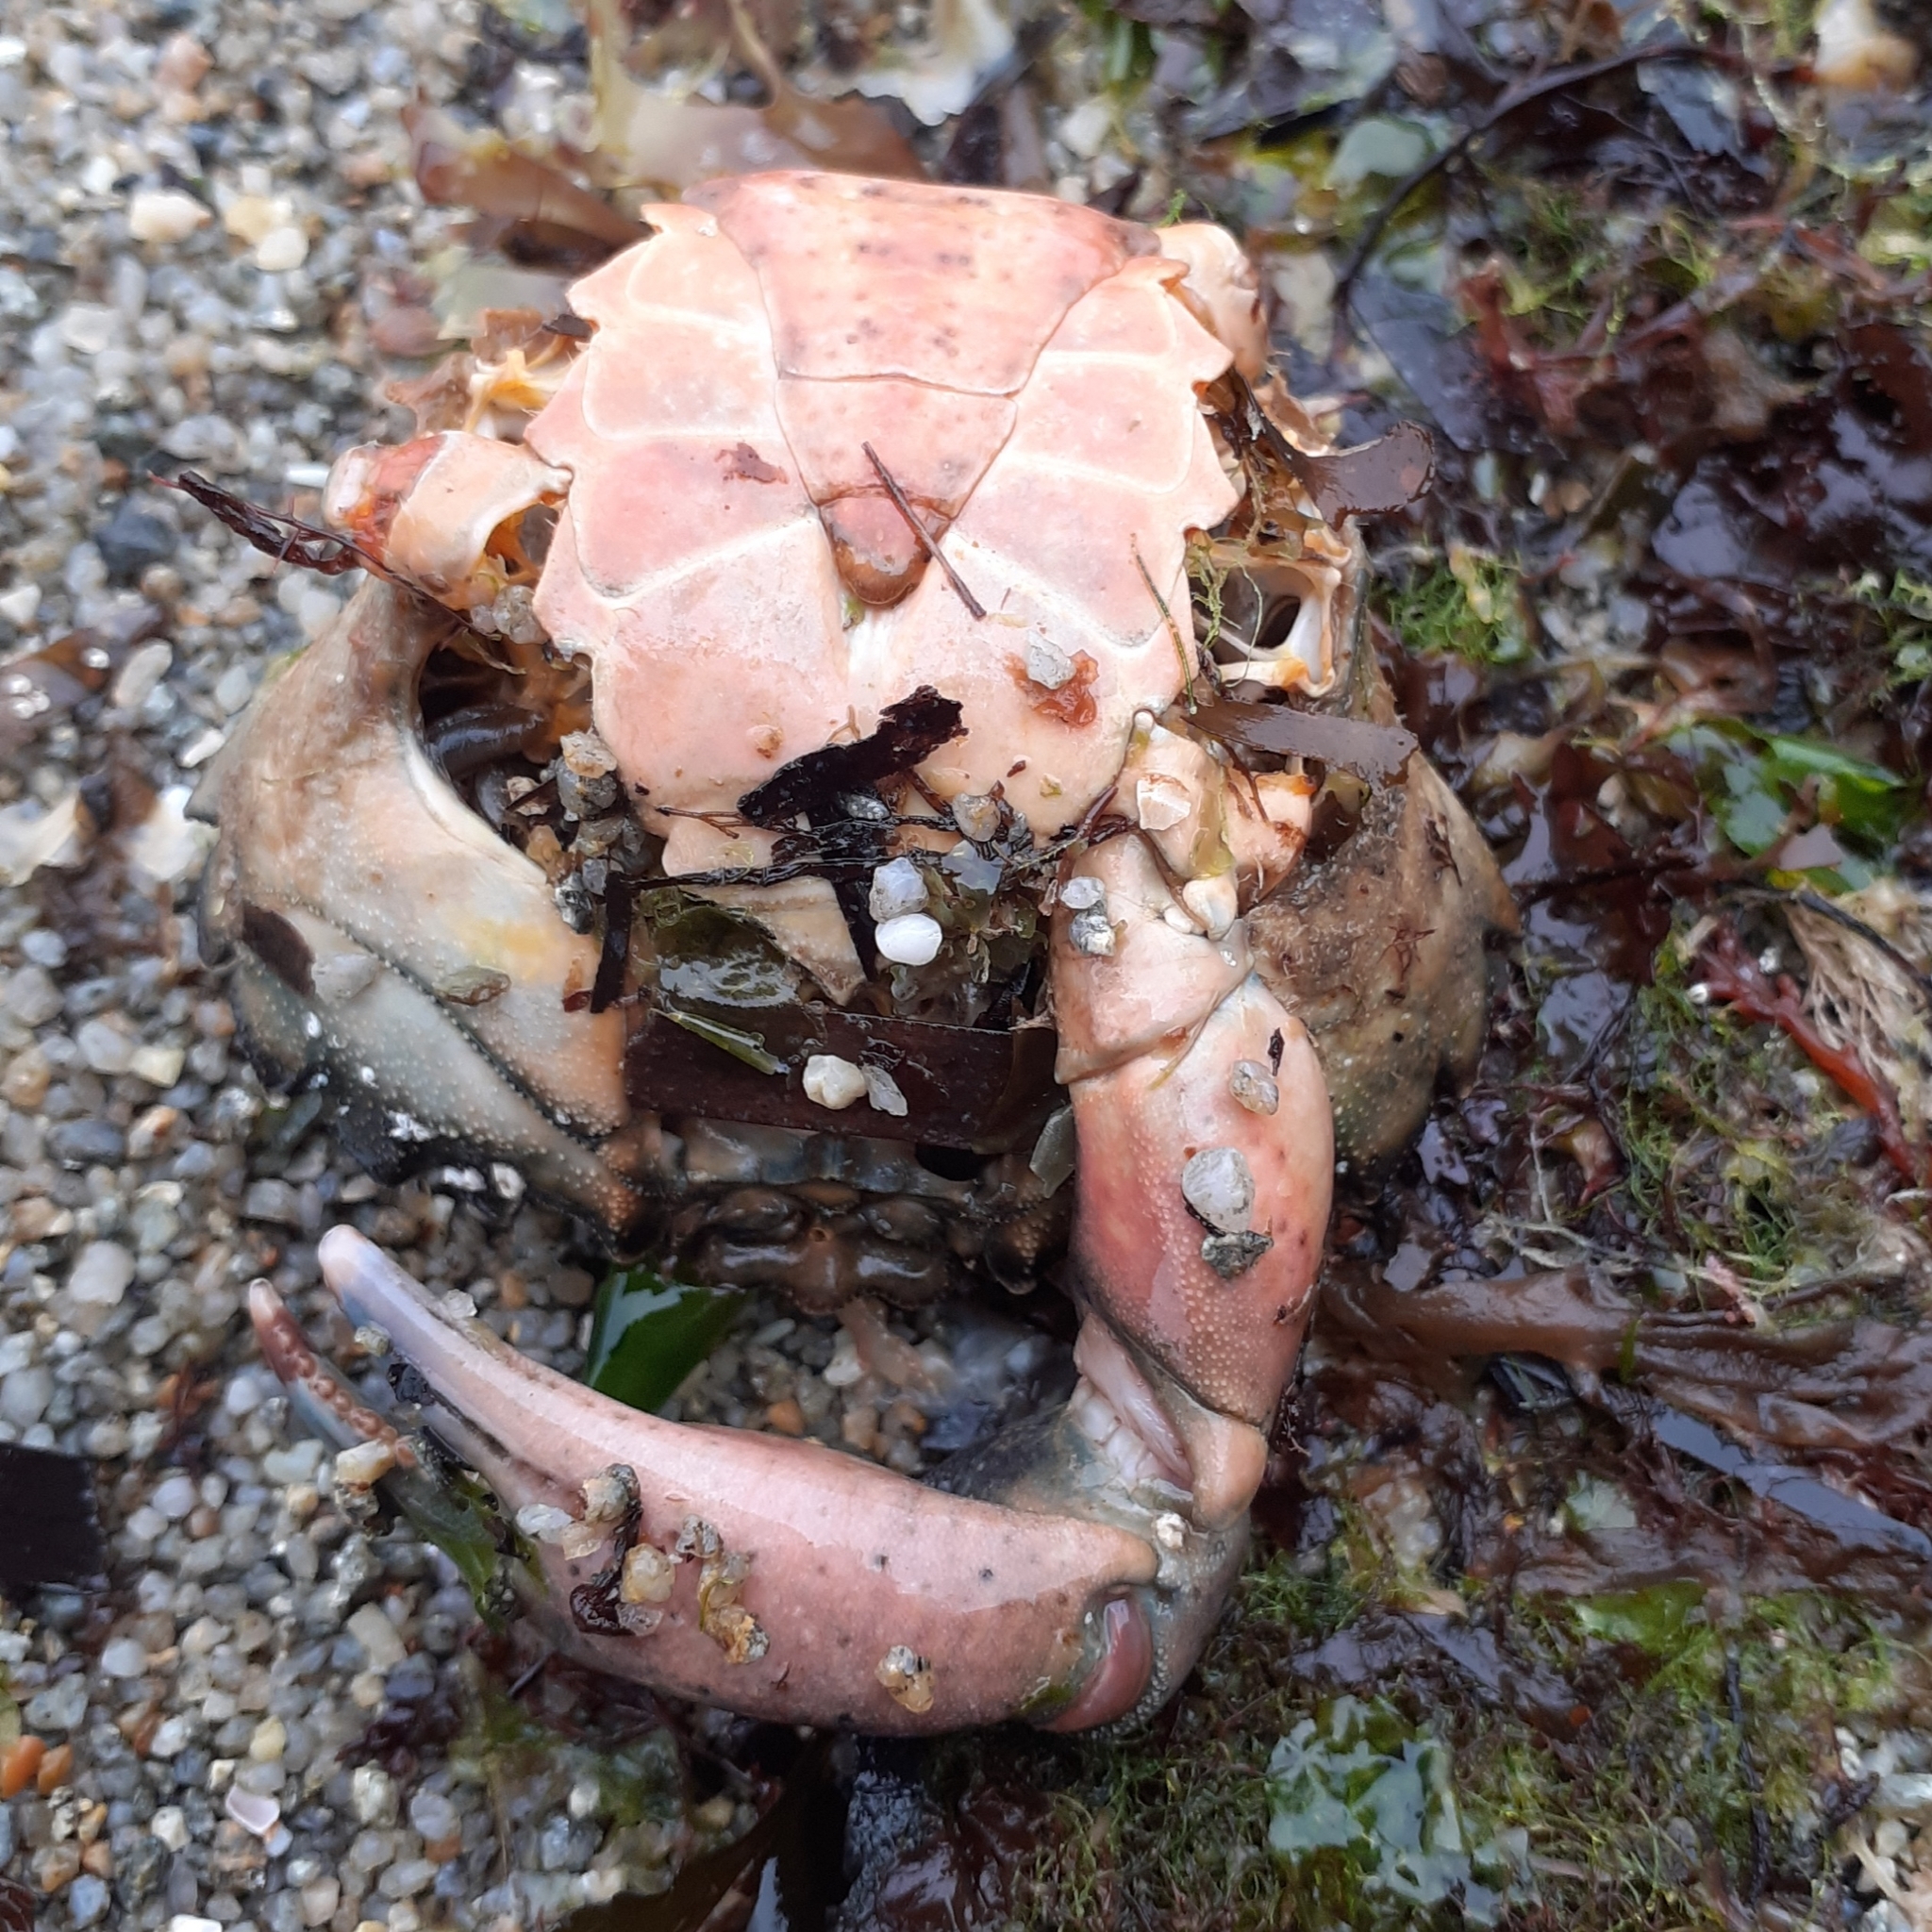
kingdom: Animalia
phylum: Arthropoda
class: Malacostraca
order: Decapoda
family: Carcinidae
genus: Carcinus
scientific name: Carcinus maenas
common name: European green crab
